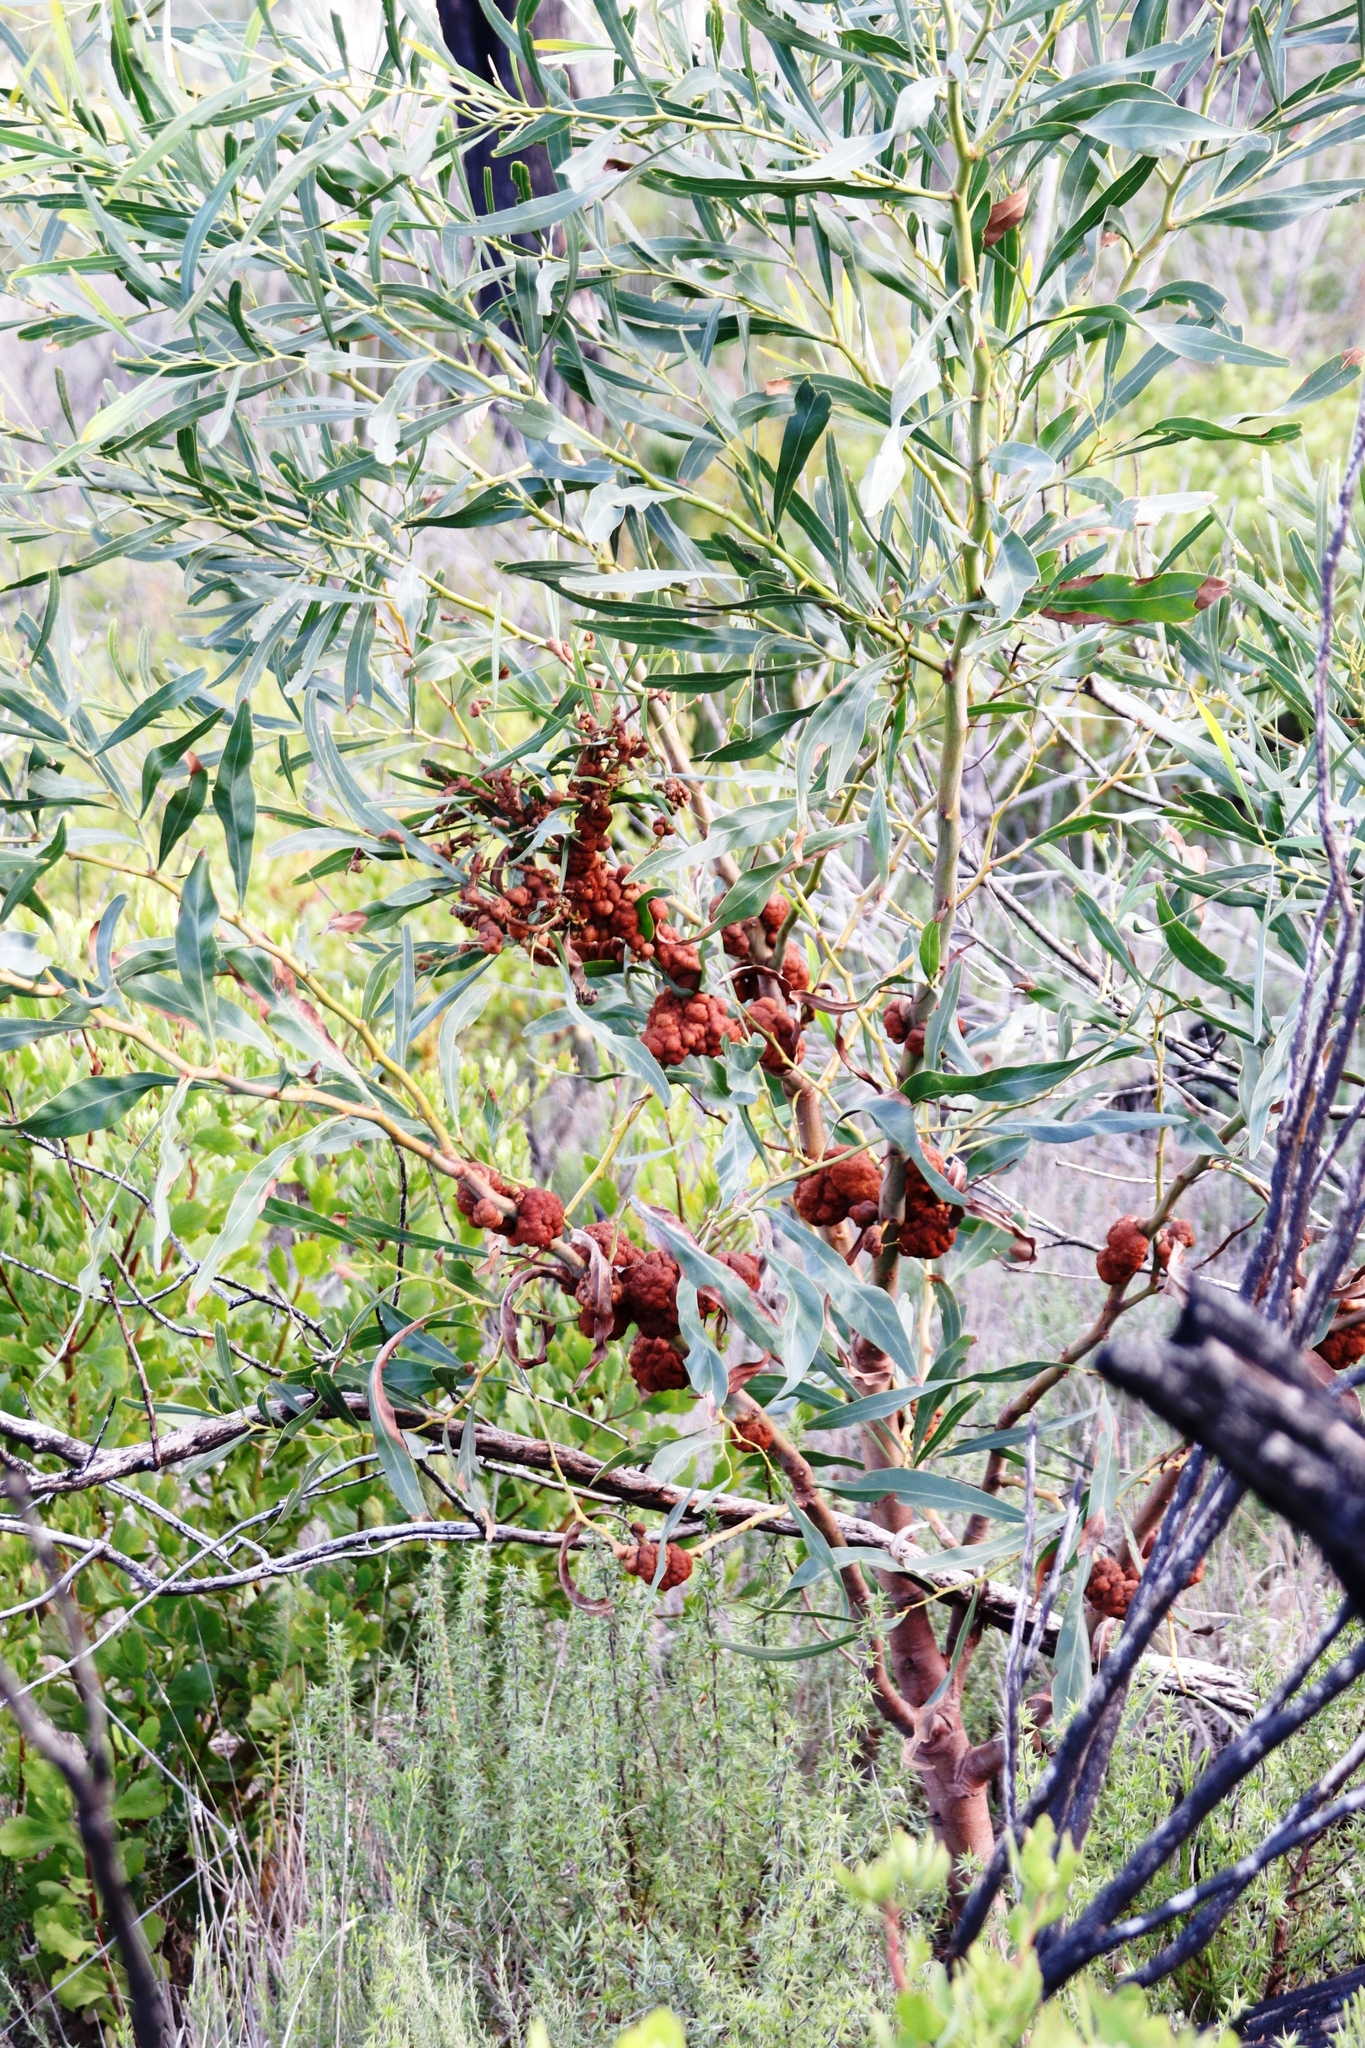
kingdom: Fungi
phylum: Basidiomycota
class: Pucciniomycetes
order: Pucciniales
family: Uromycladiaceae
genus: Uromycladium
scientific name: Uromycladium morrisii
